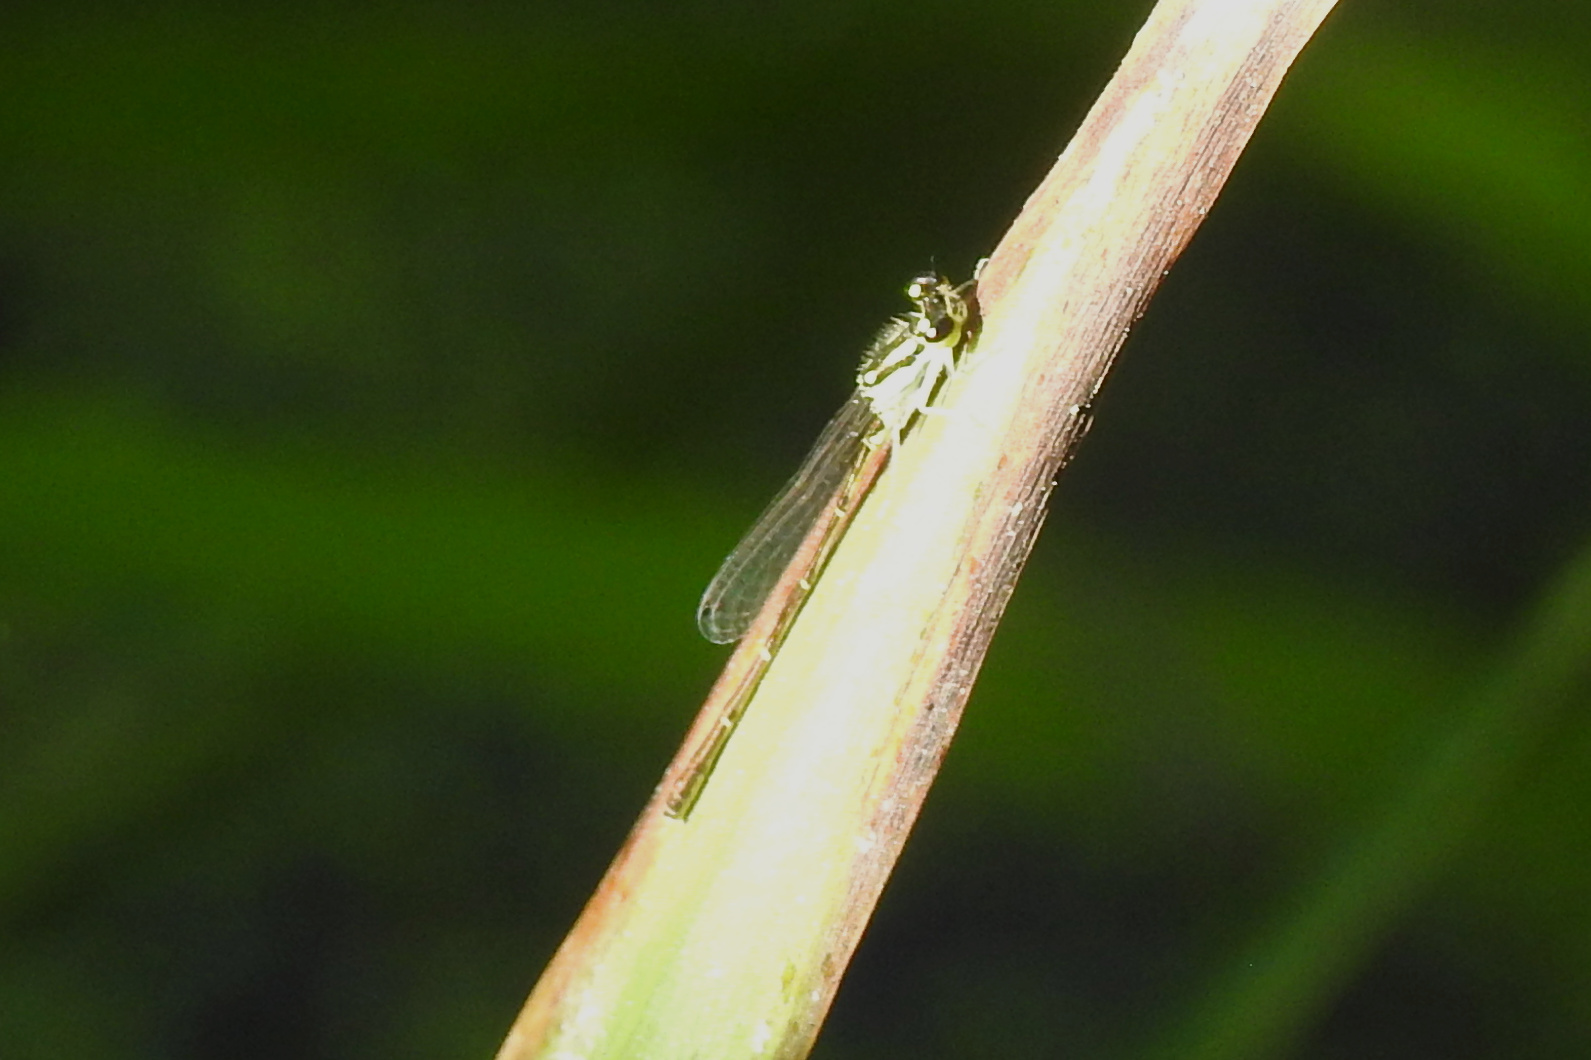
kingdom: Animalia
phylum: Arthropoda
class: Insecta
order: Odonata
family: Coenagrionidae
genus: Ischnura
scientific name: Ischnura posita
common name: Fragile forktail
